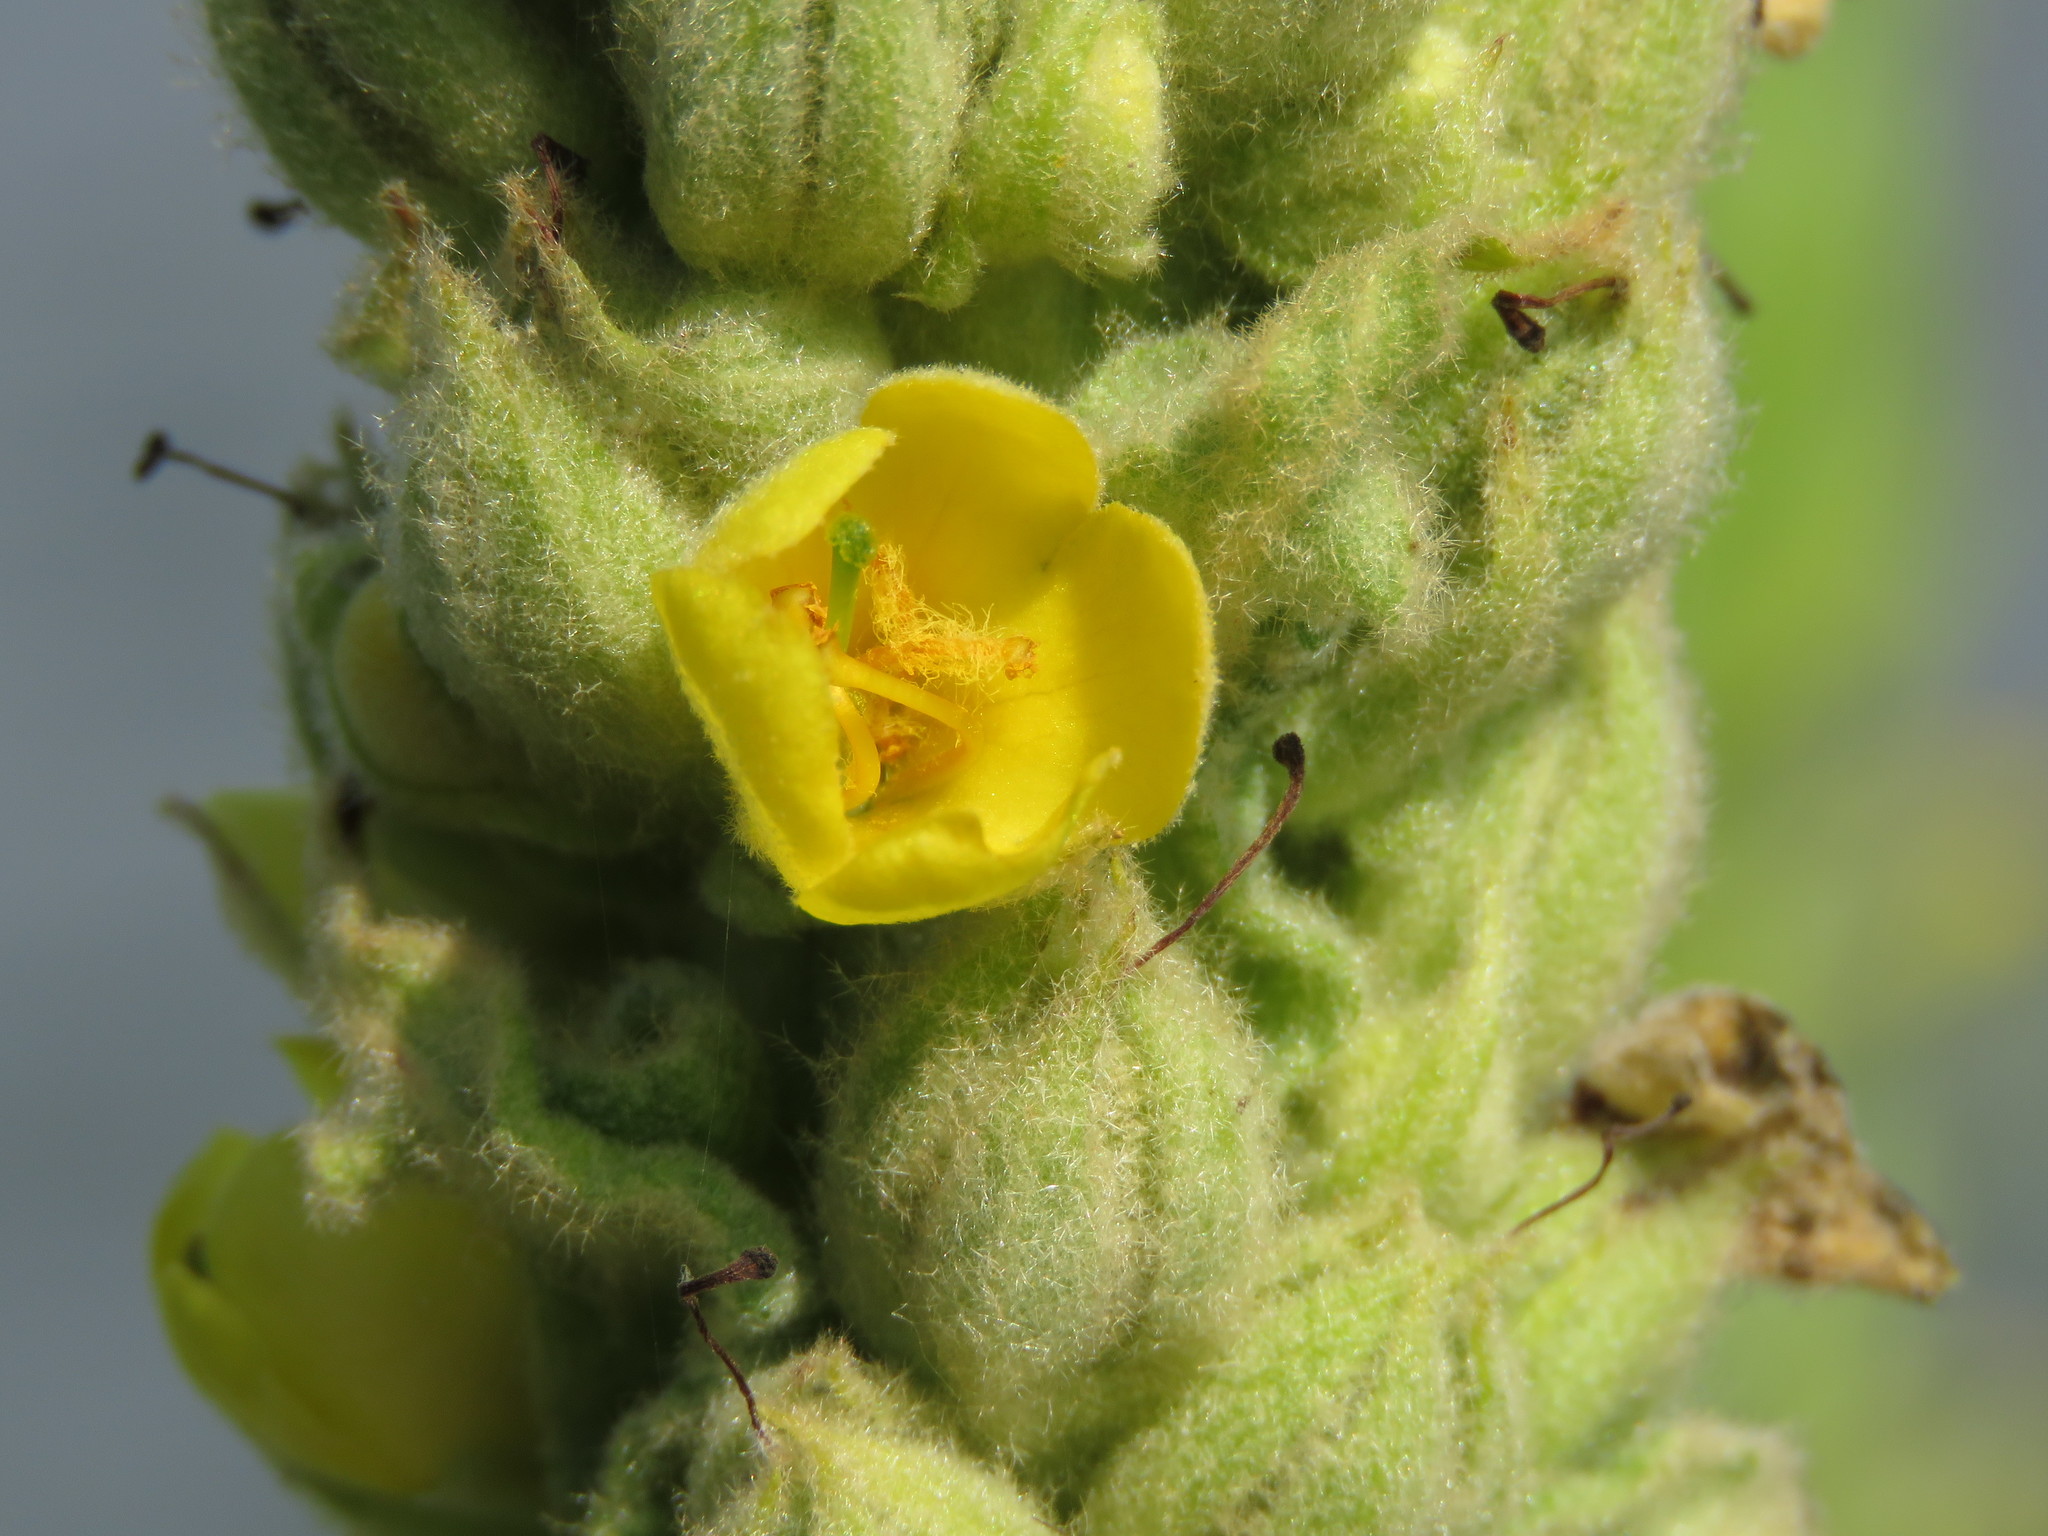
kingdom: Plantae
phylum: Tracheophyta
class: Magnoliopsida
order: Lamiales
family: Scrophulariaceae
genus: Verbascum
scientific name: Verbascum thapsus
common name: Common mullein
